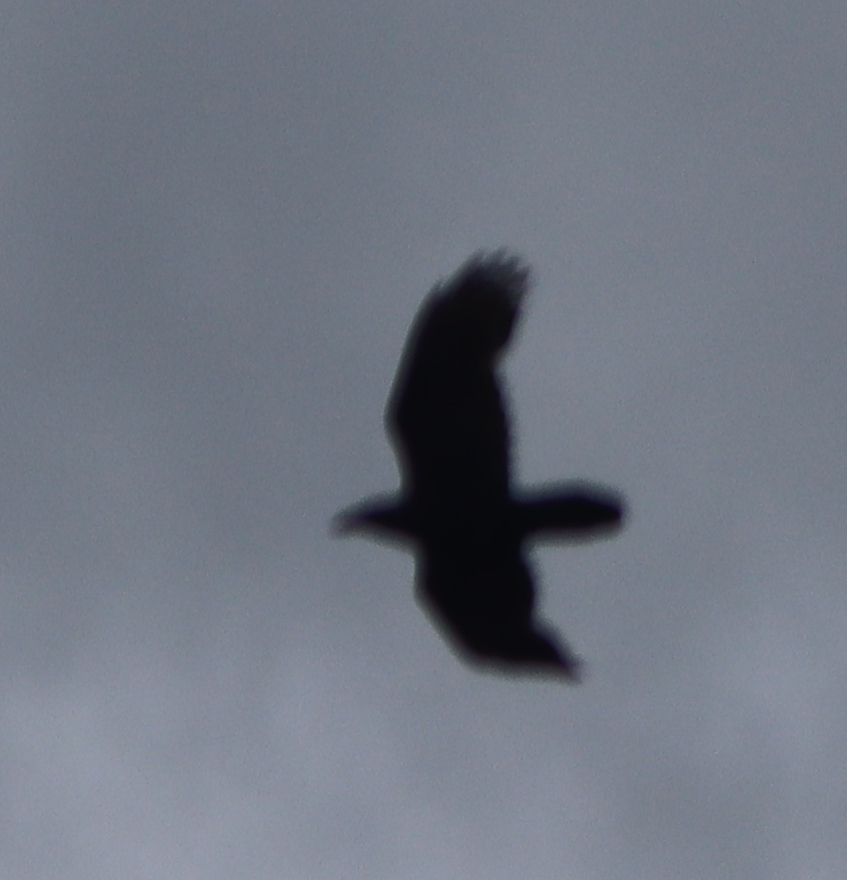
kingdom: Animalia
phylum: Chordata
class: Aves
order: Passeriformes
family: Corvidae
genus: Corvus
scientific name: Corvus corax
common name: Common raven
